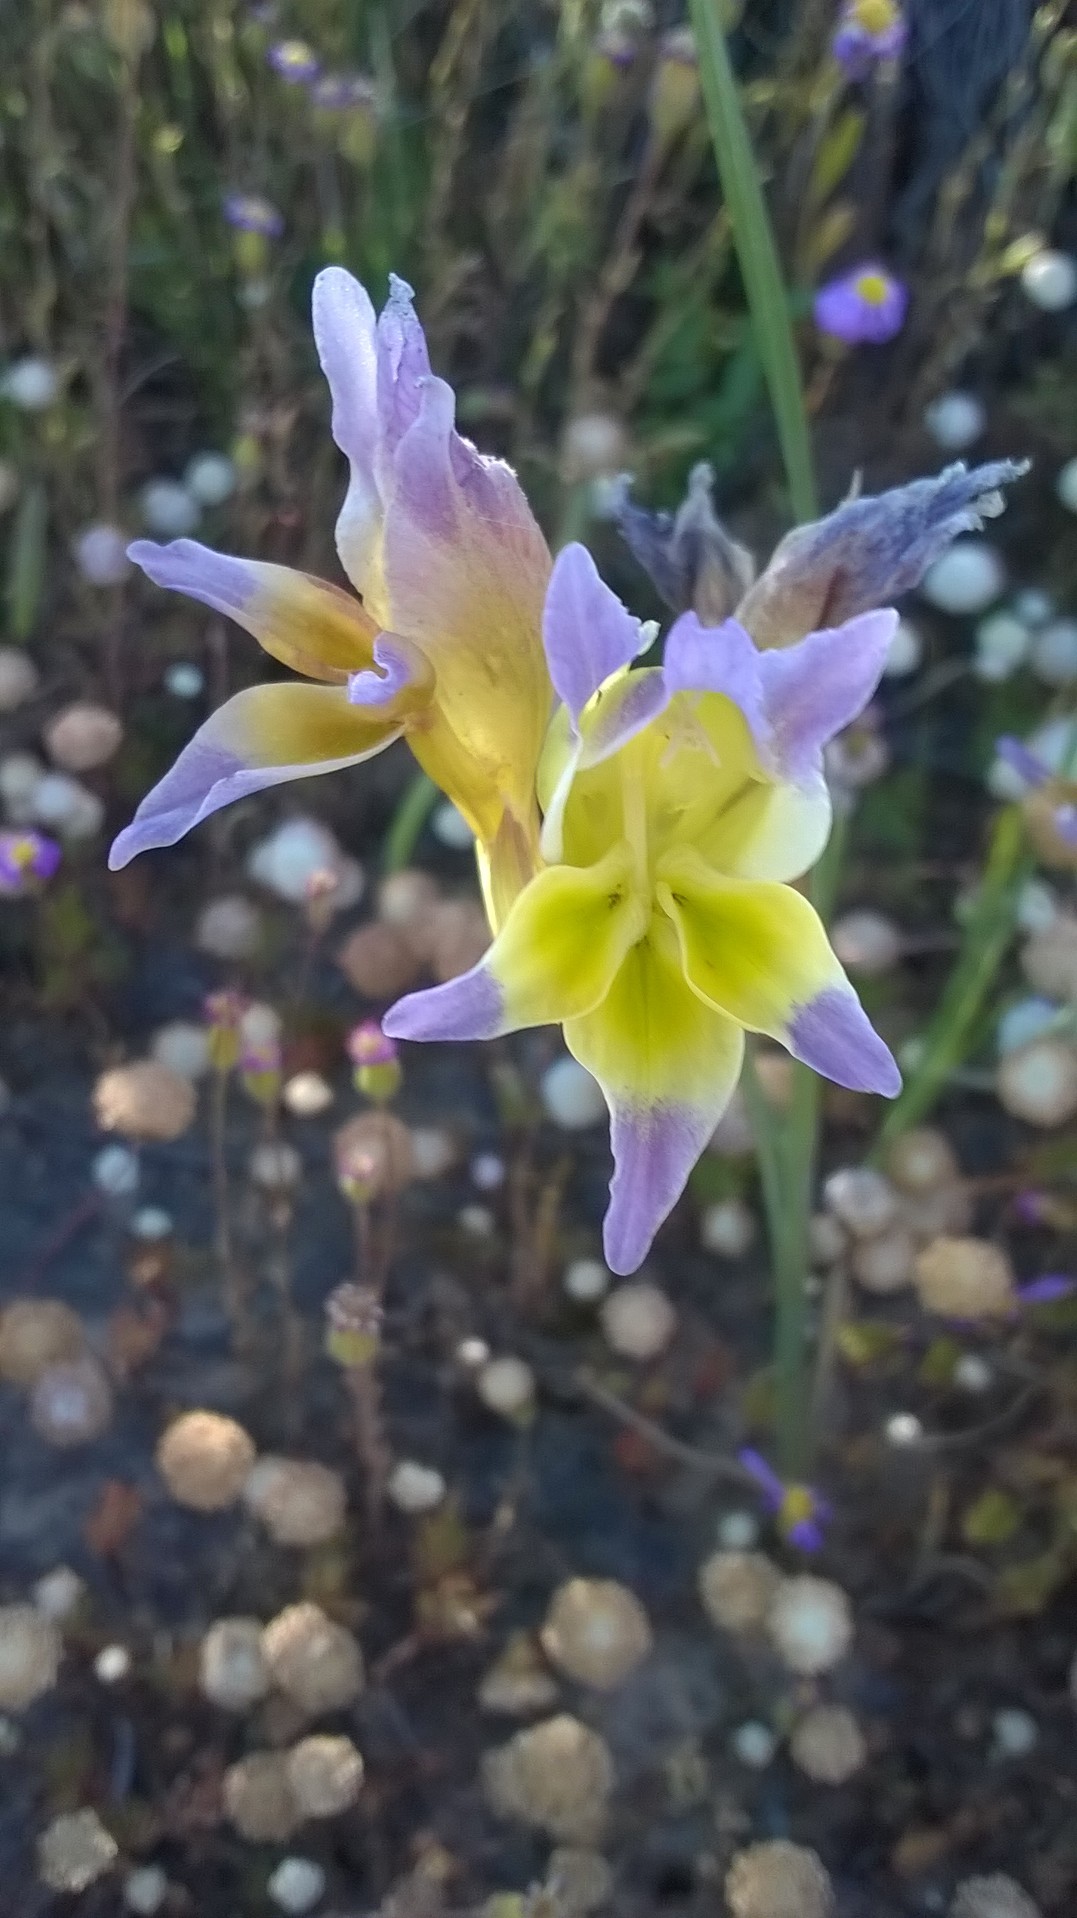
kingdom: Plantae
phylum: Tracheophyta
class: Liliopsida
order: Asparagales
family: Iridaceae
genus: Gladiolus
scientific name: Gladiolus venustus
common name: Purple kalkoentjie
